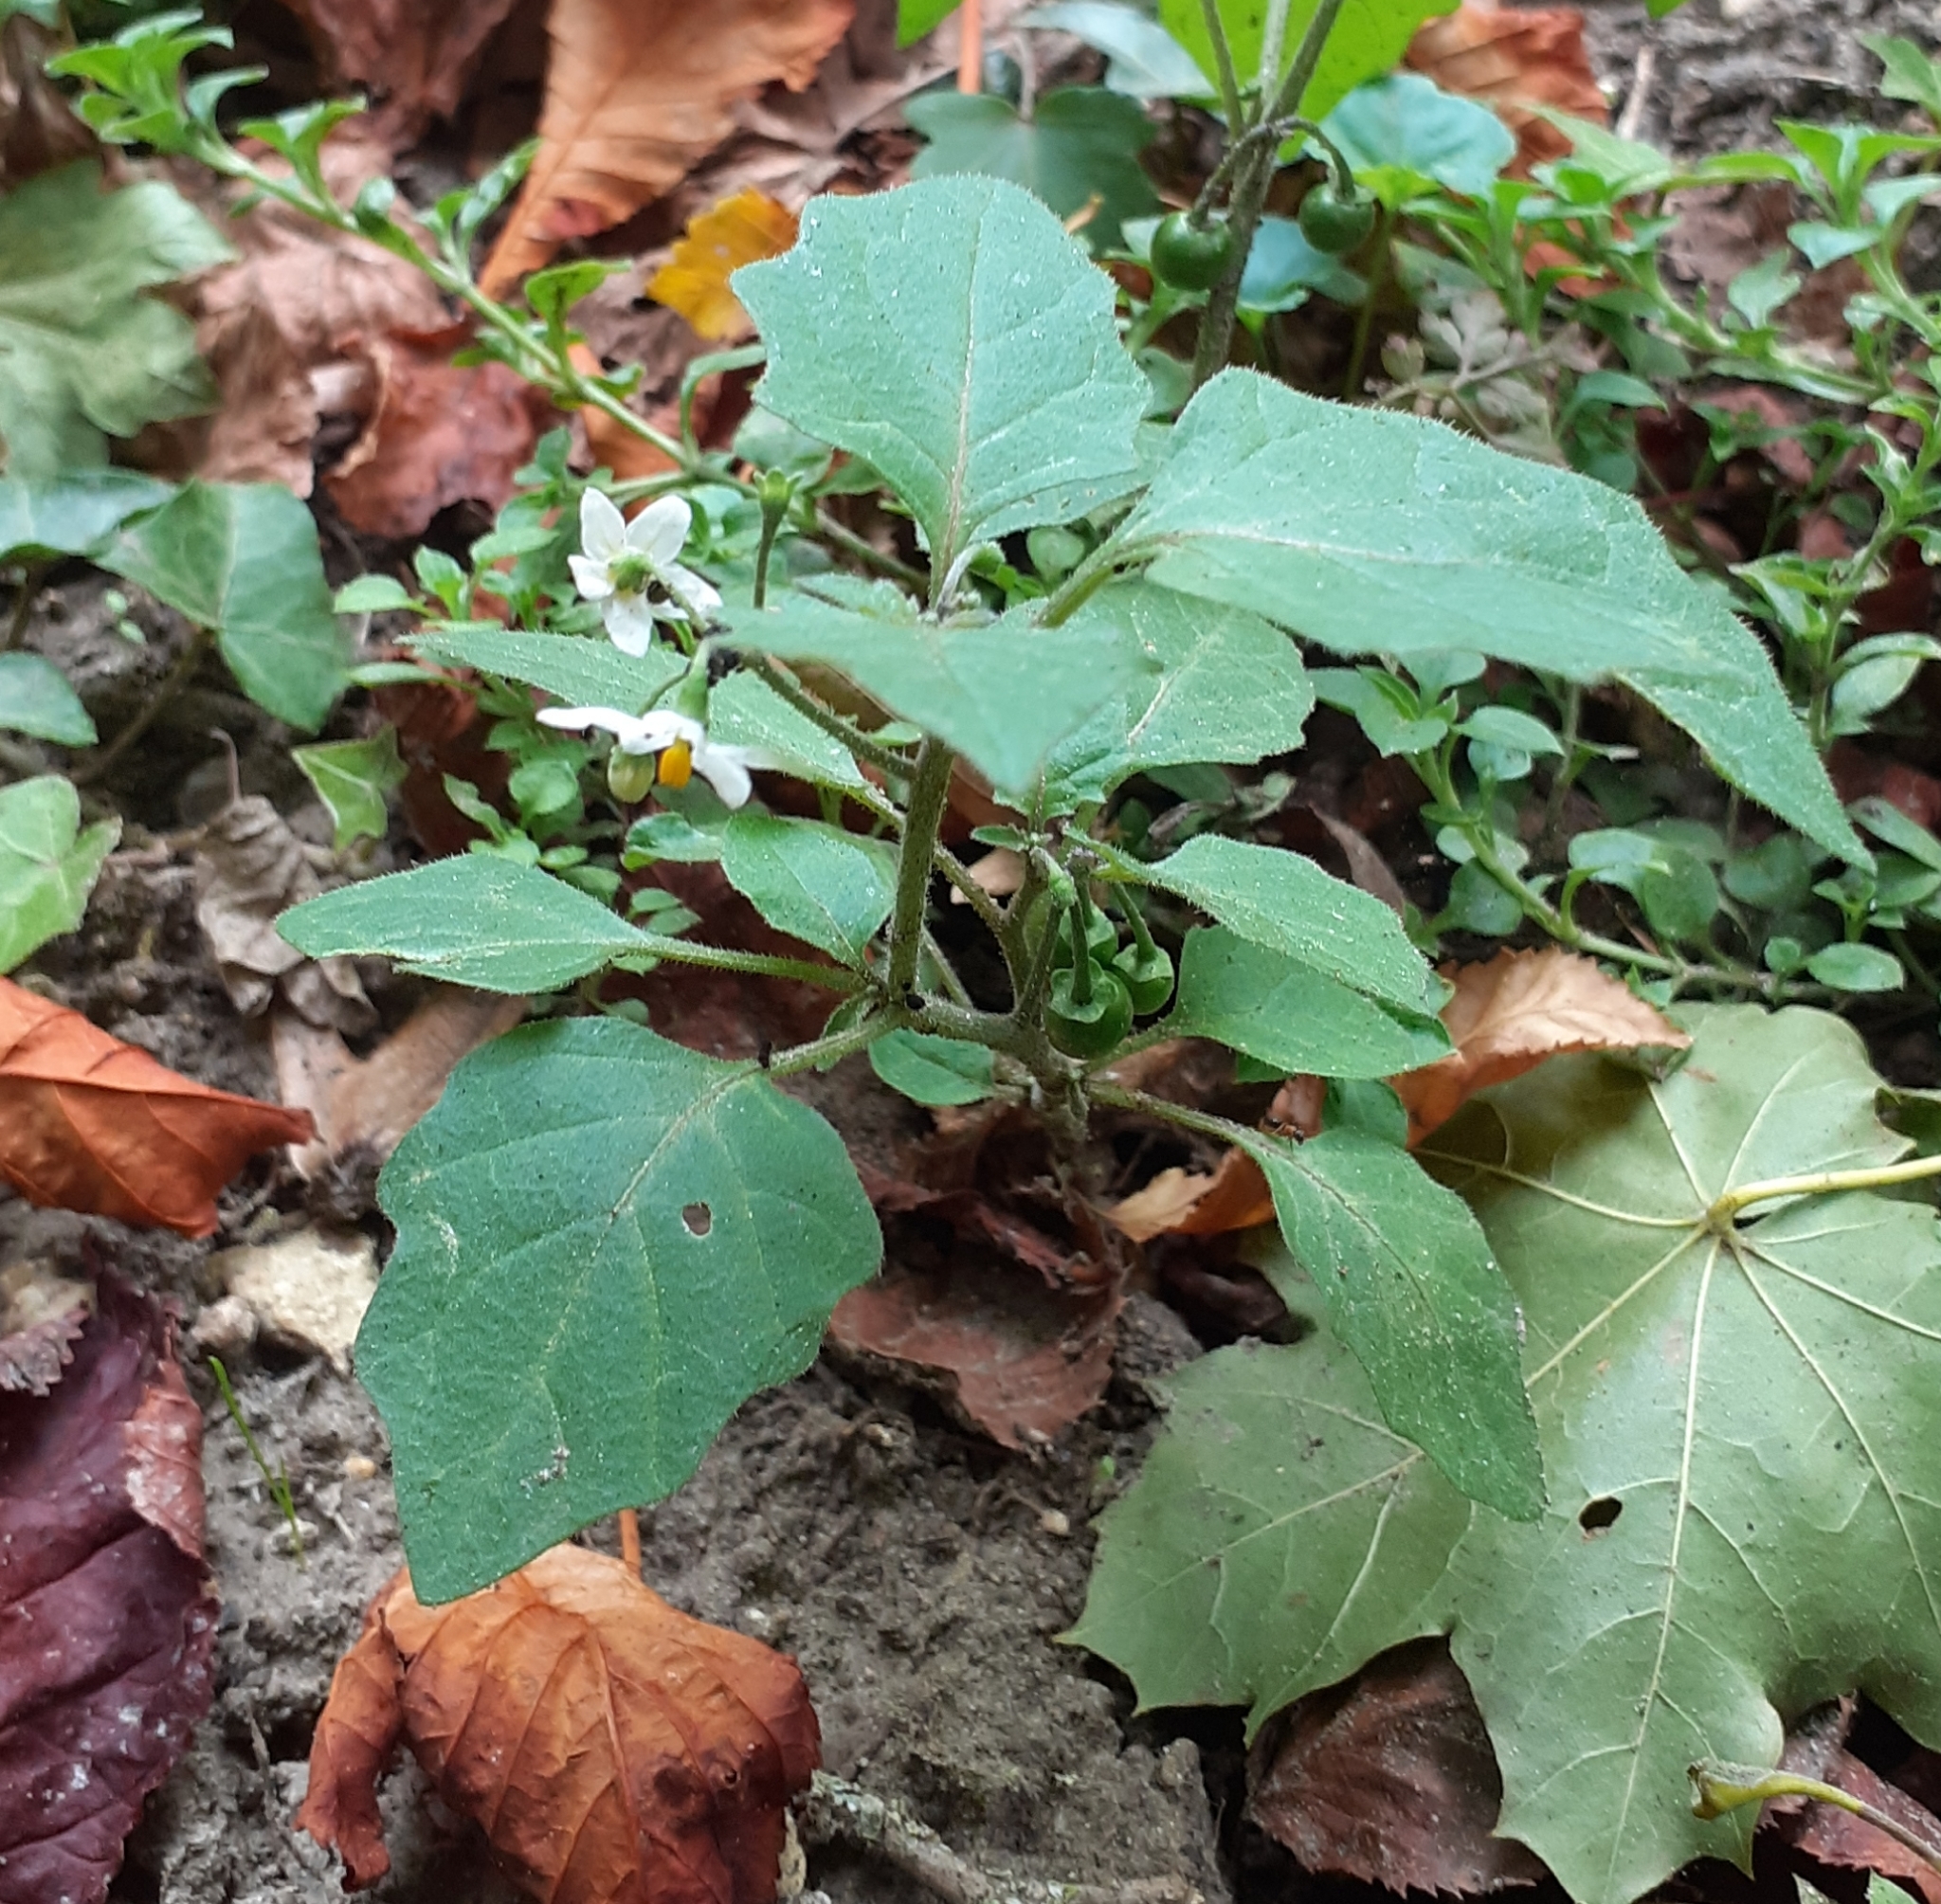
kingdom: Plantae
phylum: Tracheophyta
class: Magnoliopsida
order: Solanales
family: Solanaceae
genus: Solanum
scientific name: Solanum nigrum
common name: Black nightshade
